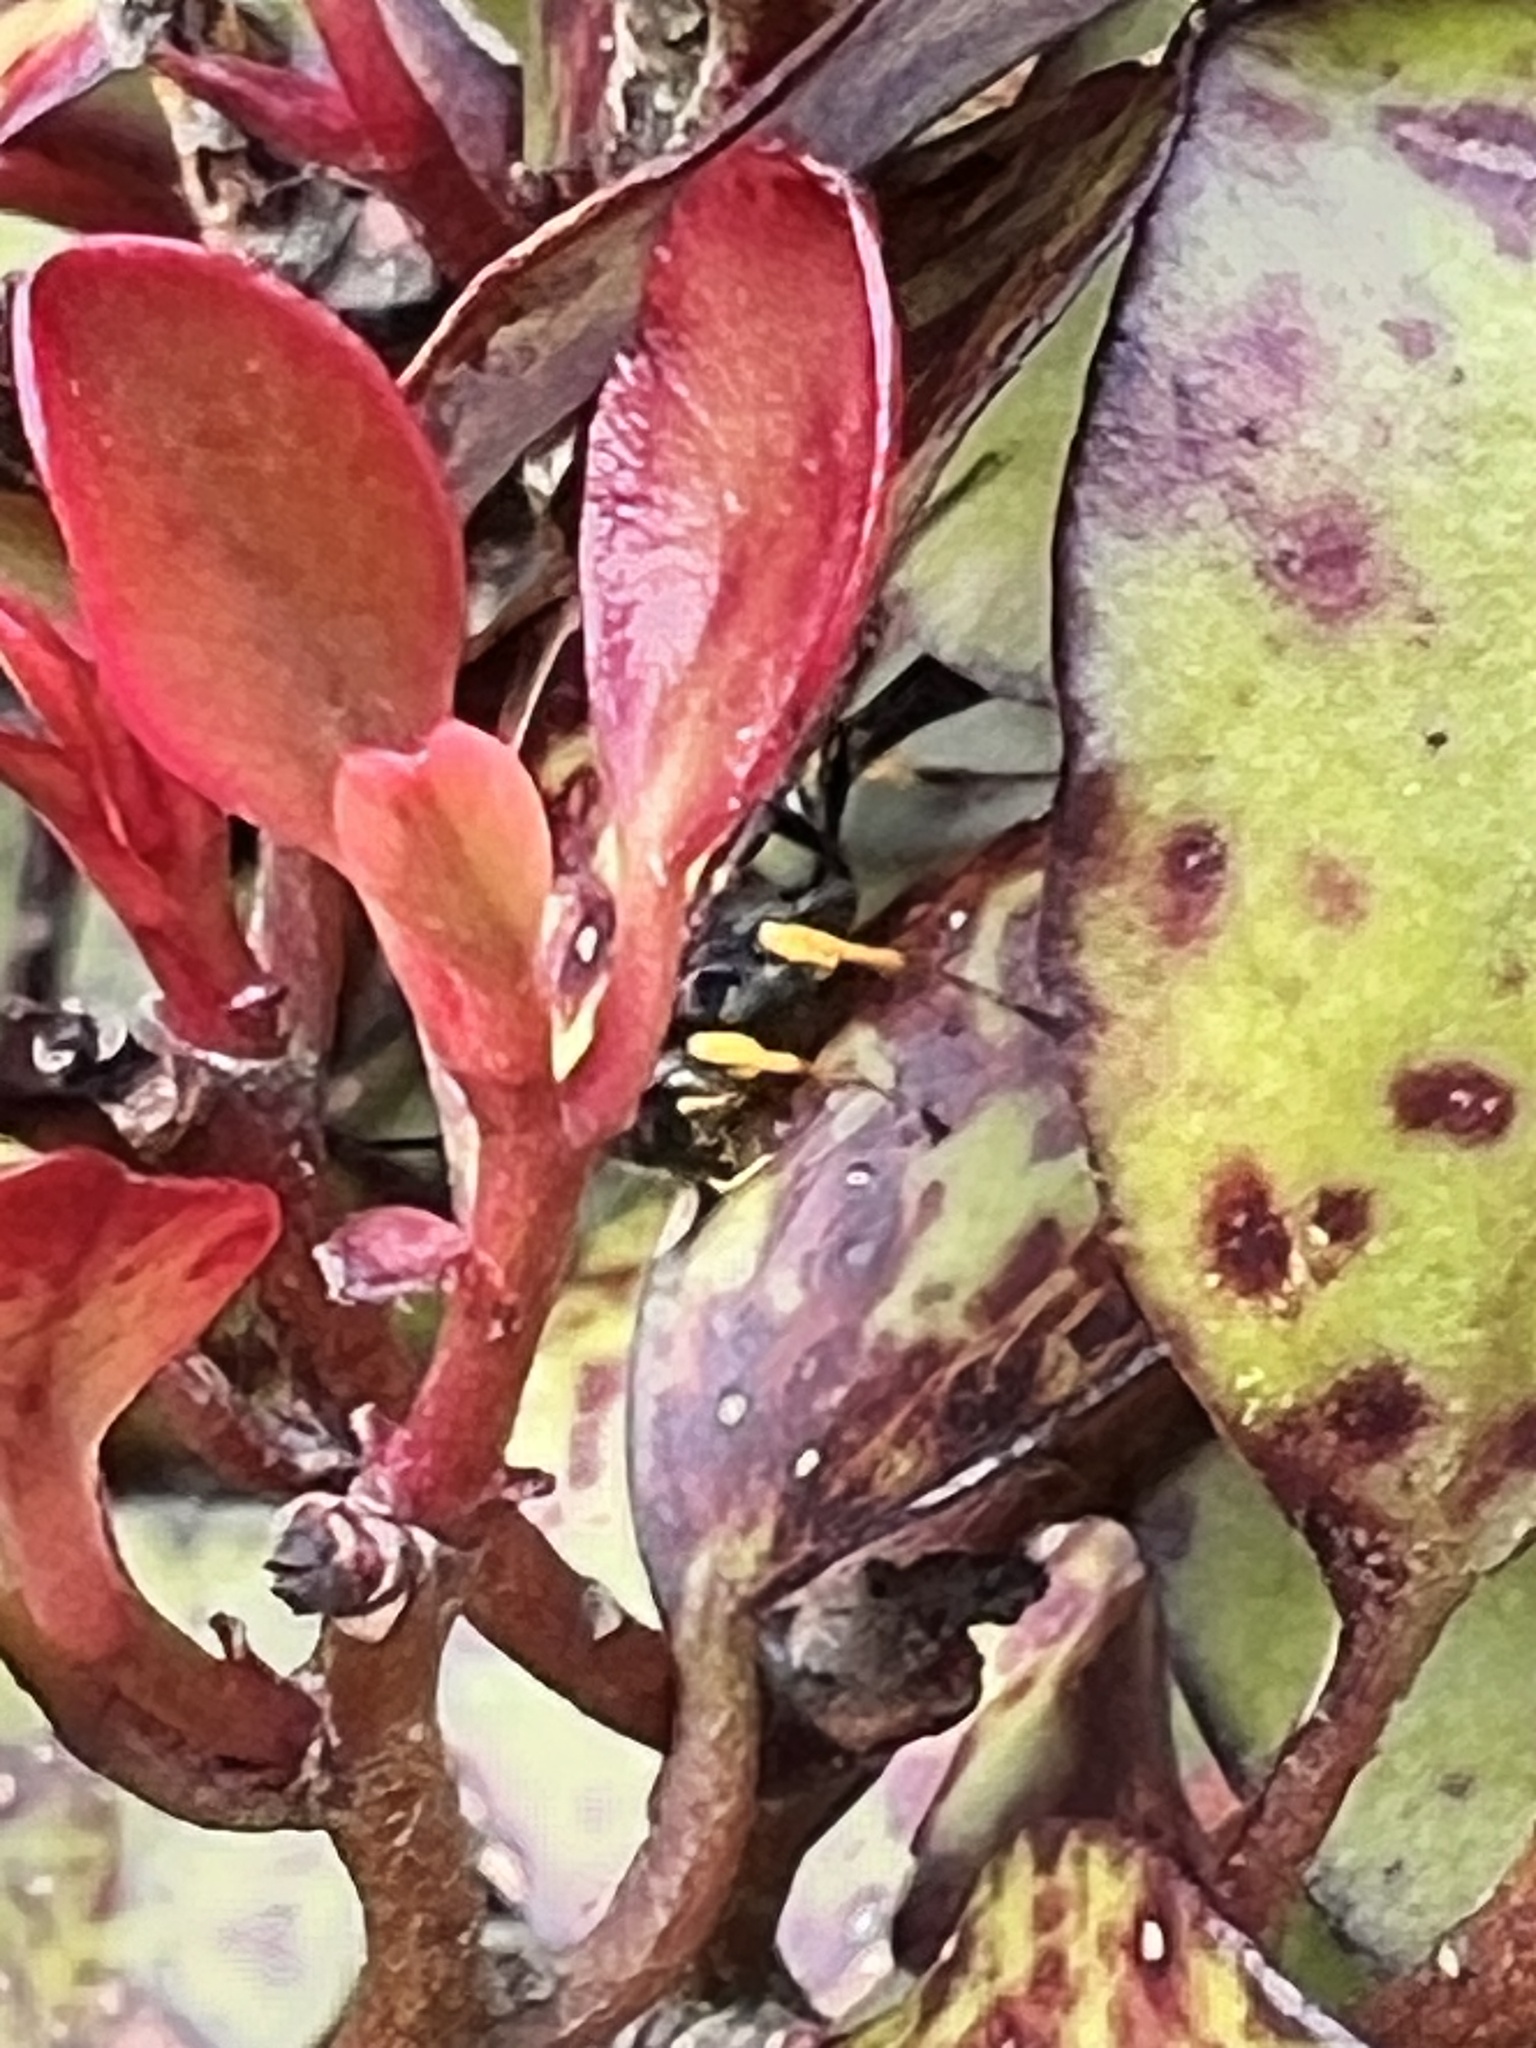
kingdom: Animalia
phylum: Arthropoda
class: Insecta
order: Hymenoptera
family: Ichneumonidae
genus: Dusona
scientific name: Dusona stramineipes
